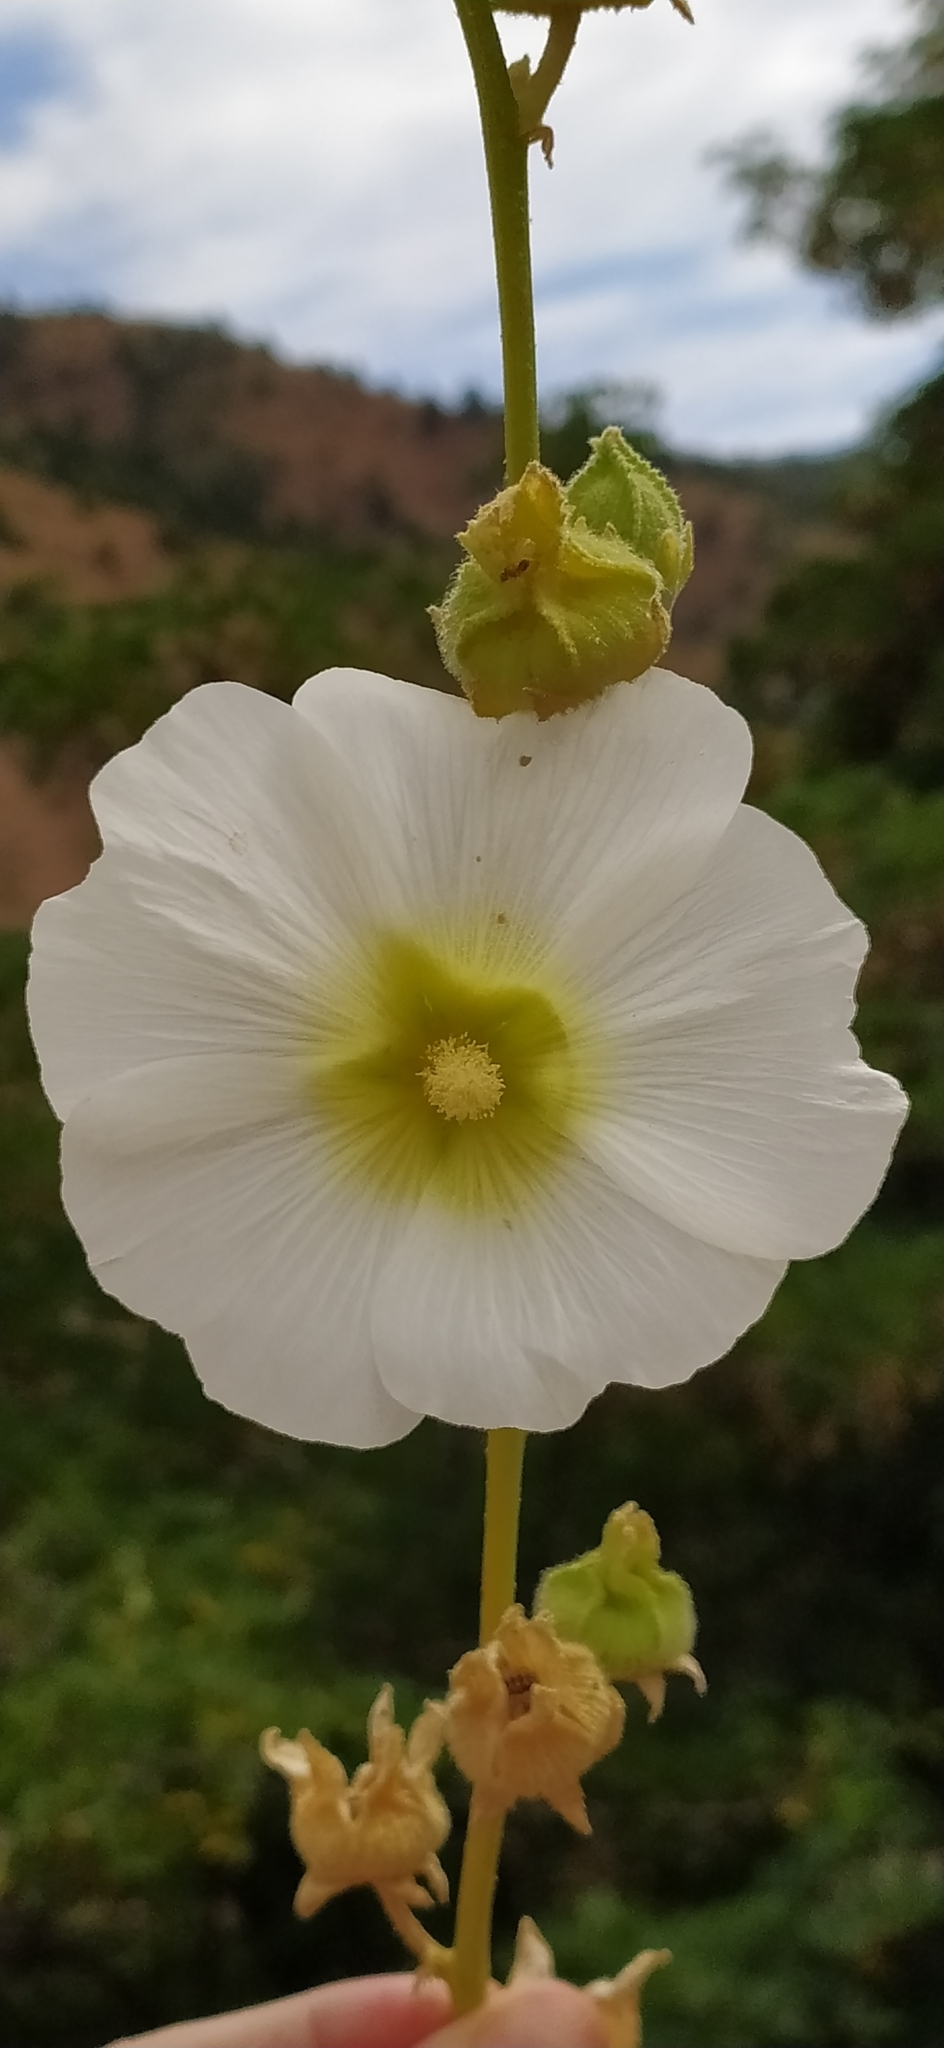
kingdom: Plantae
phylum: Tracheophyta
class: Magnoliopsida
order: Malvales
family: Malvaceae
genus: Alcea
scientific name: Alcea nudiflora
